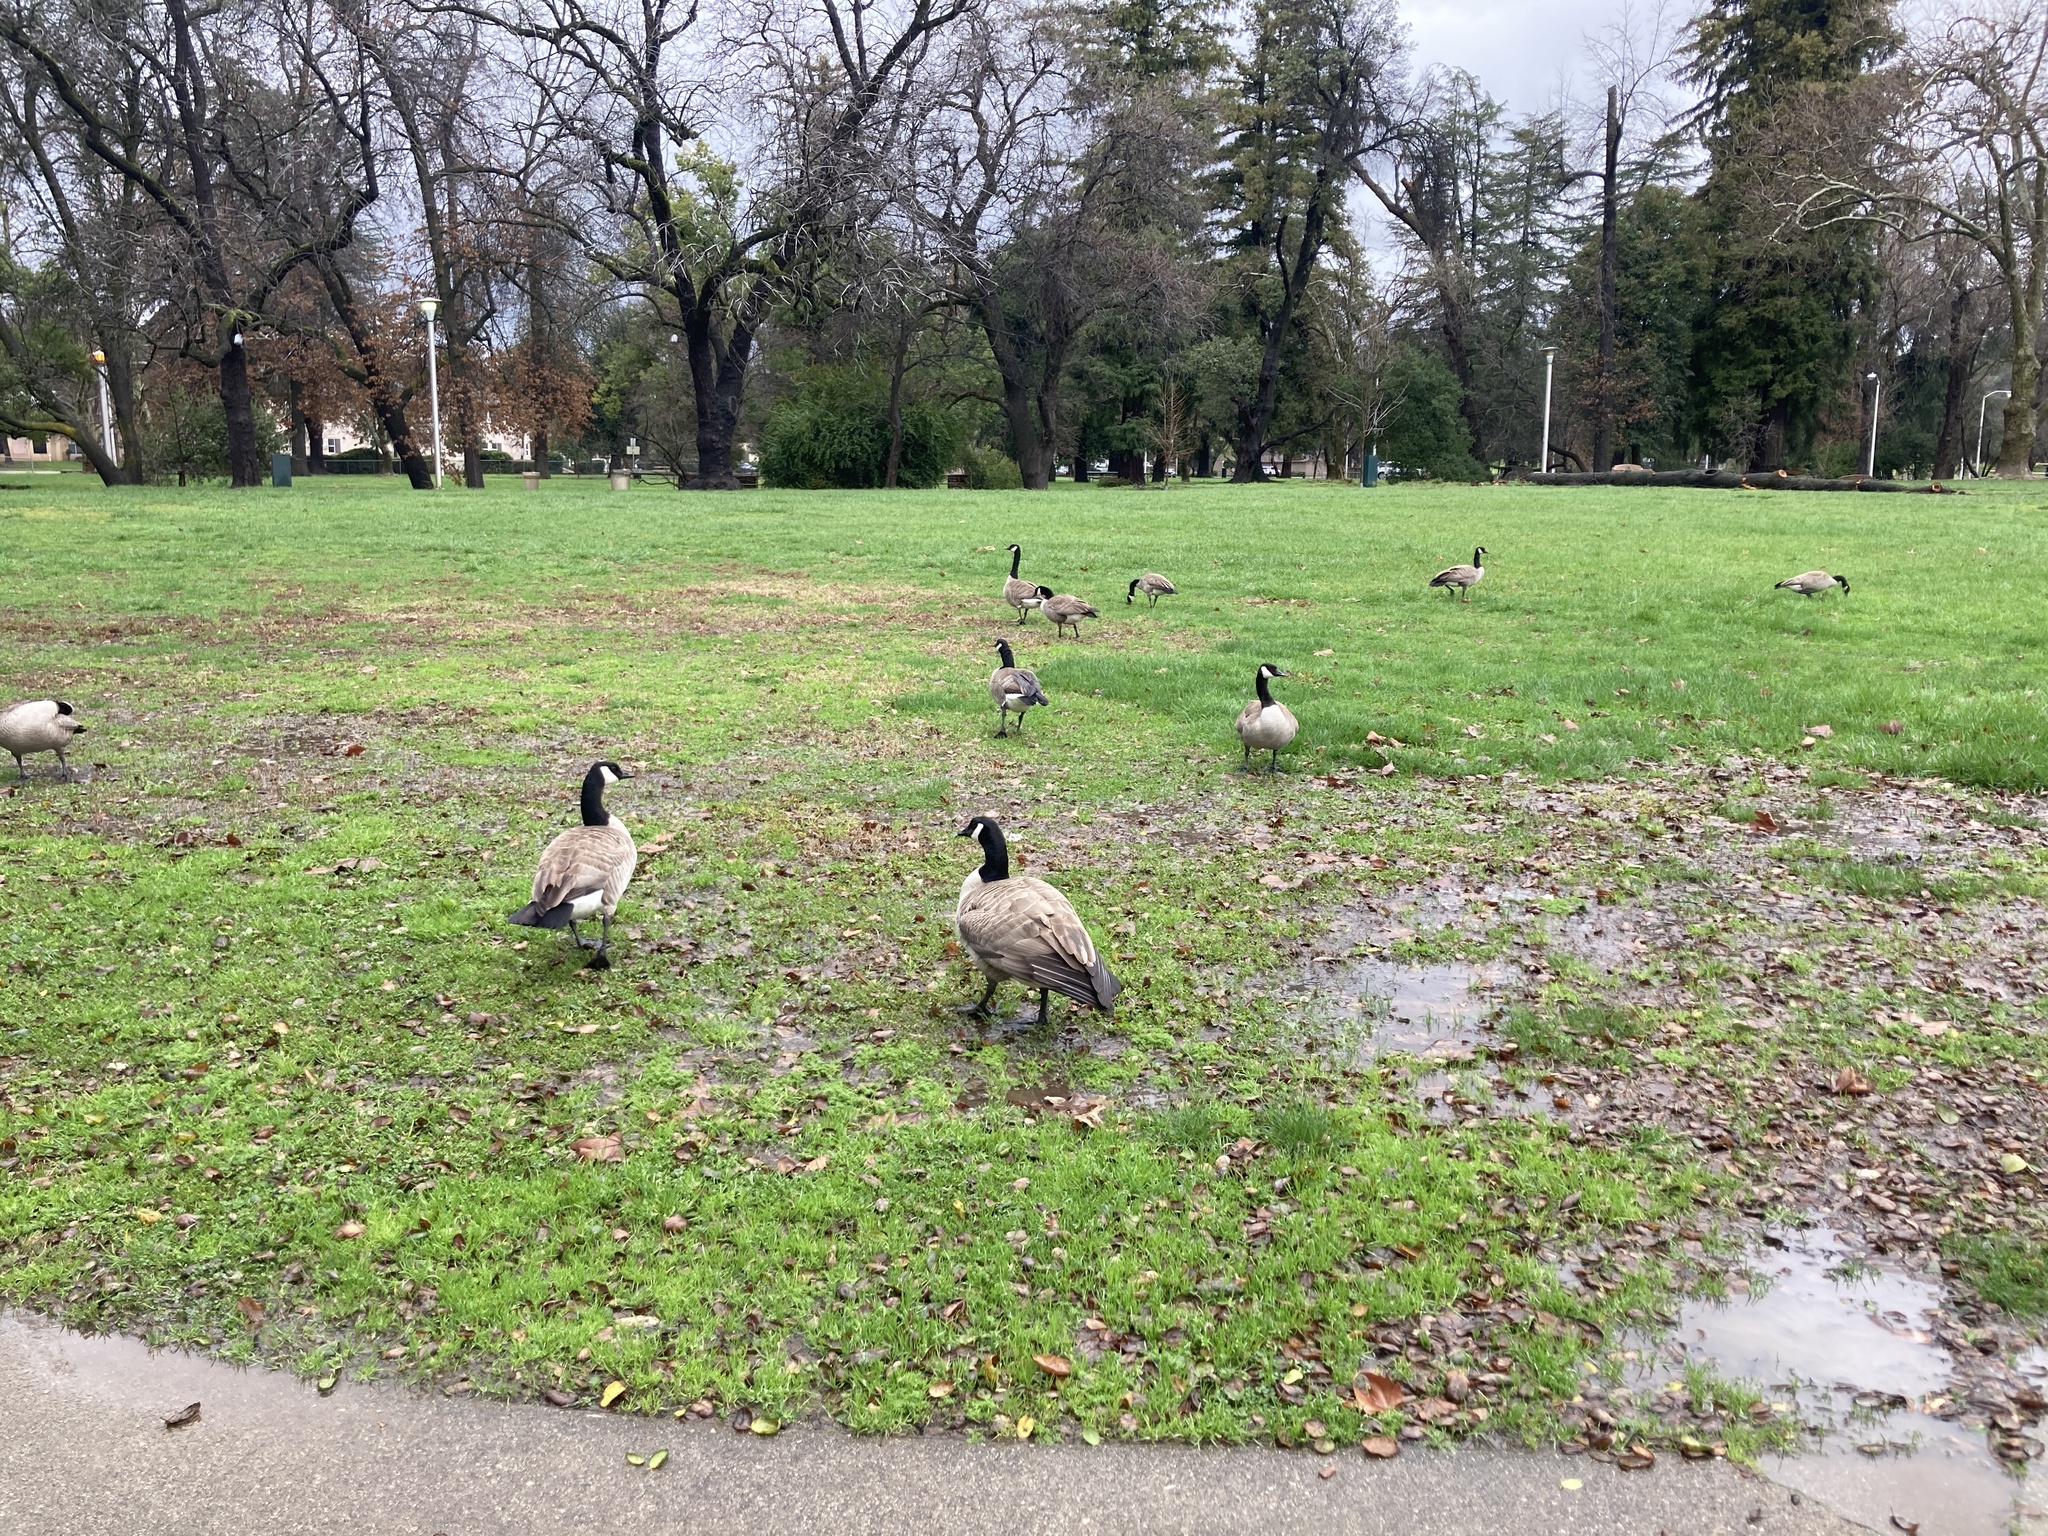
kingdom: Animalia
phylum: Chordata
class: Aves
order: Anseriformes
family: Anatidae
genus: Branta
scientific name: Branta canadensis
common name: Canada goose
